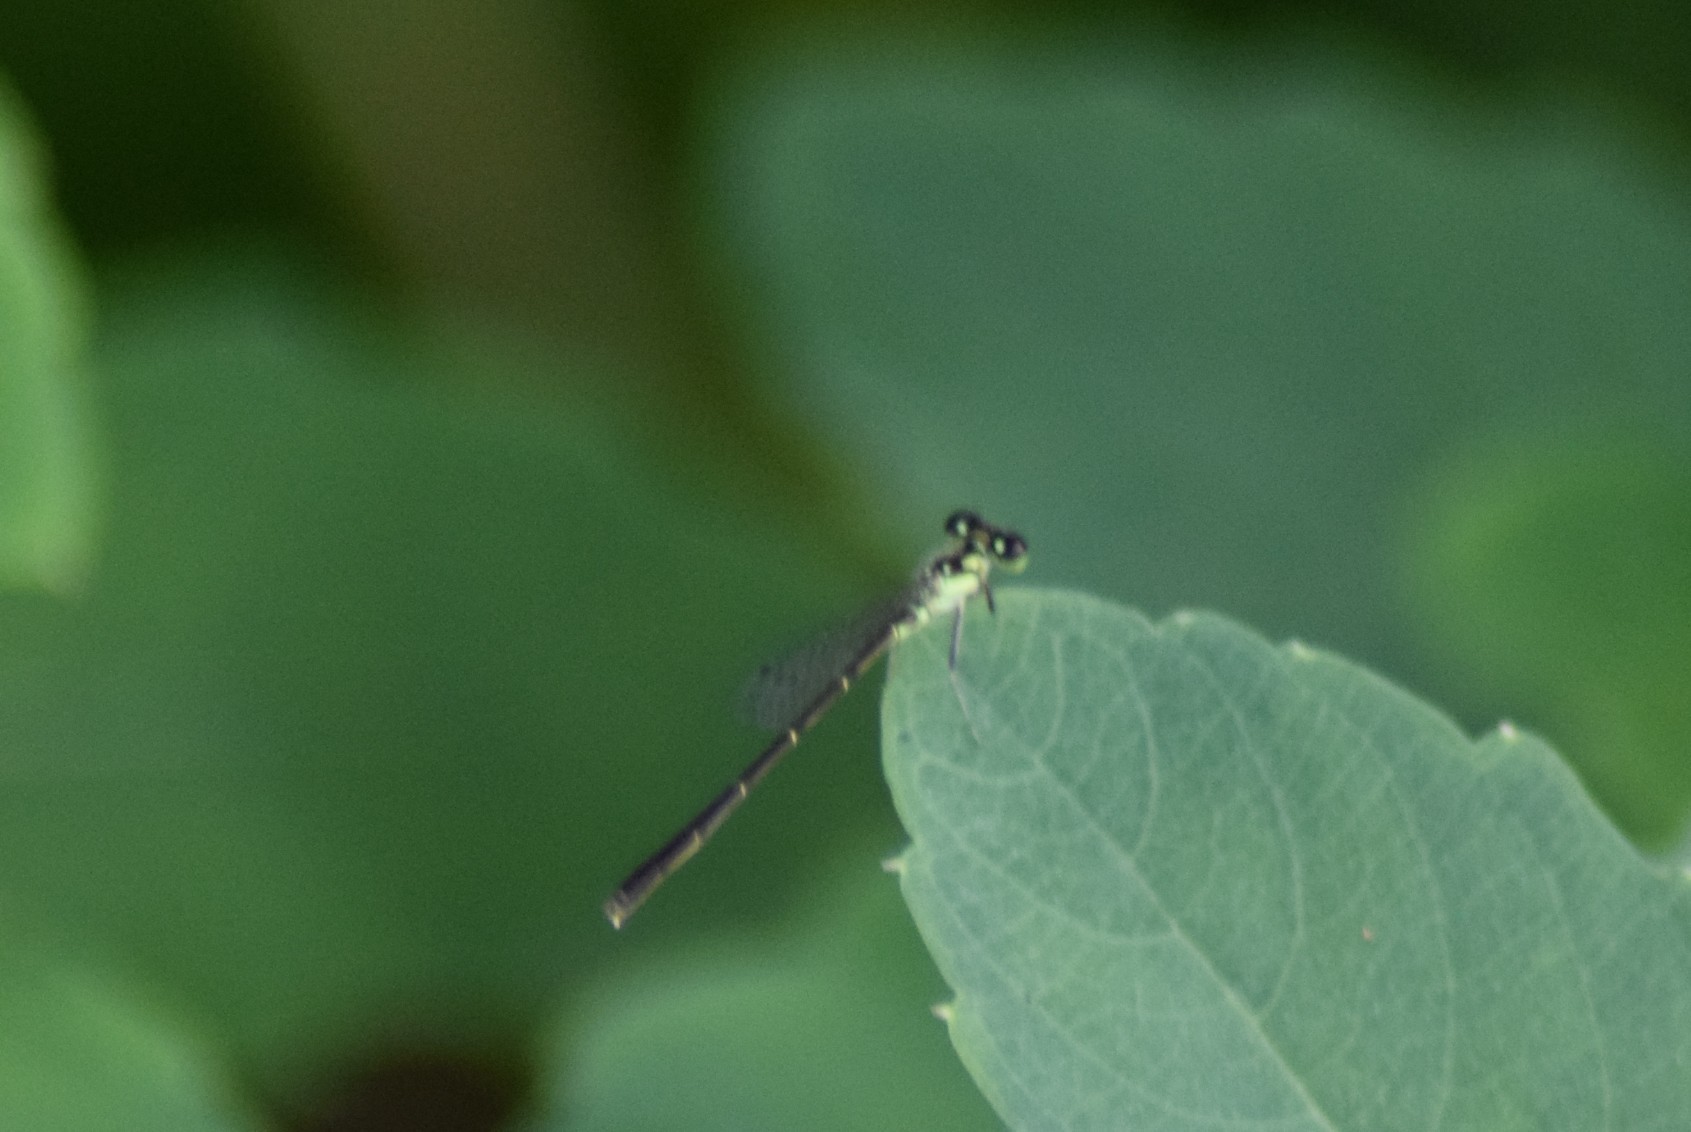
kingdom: Animalia
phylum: Arthropoda
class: Insecta
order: Odonata
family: Coenagrionidae
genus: Ischnura
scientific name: Ischnura posita
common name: Fragile forktail
